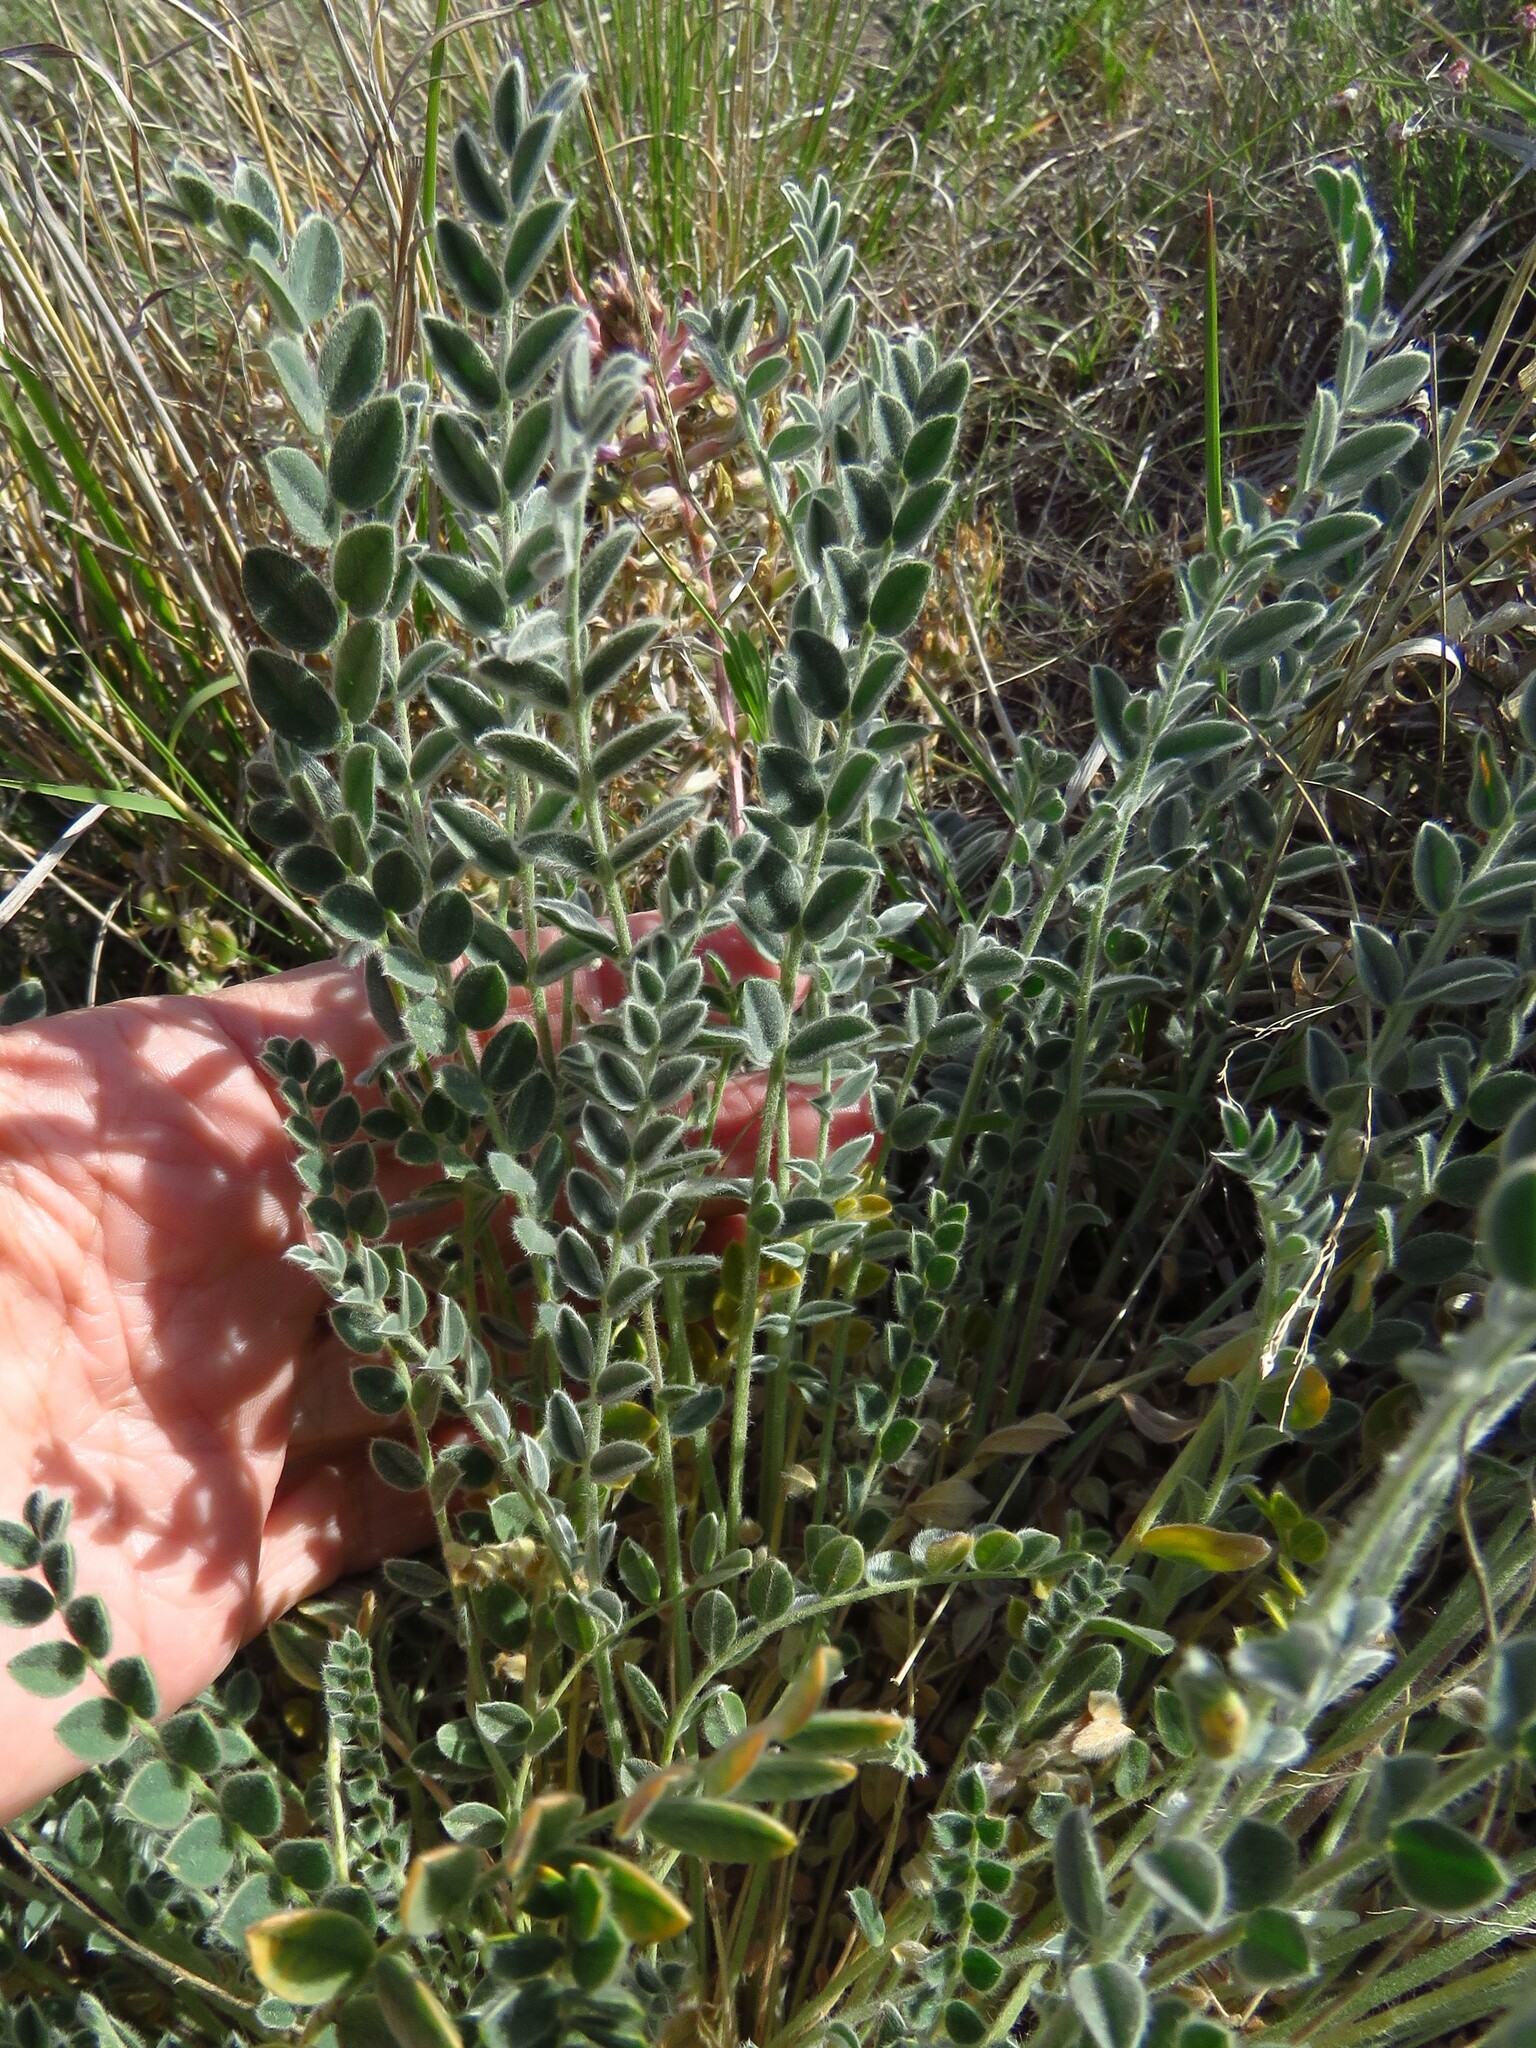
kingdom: Plantae
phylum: Tracheophyta
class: Magnoliopsida
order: Fabales
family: Fabaceae
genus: Astragalus
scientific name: Astragalus mollissimus
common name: Woolly locoweed
